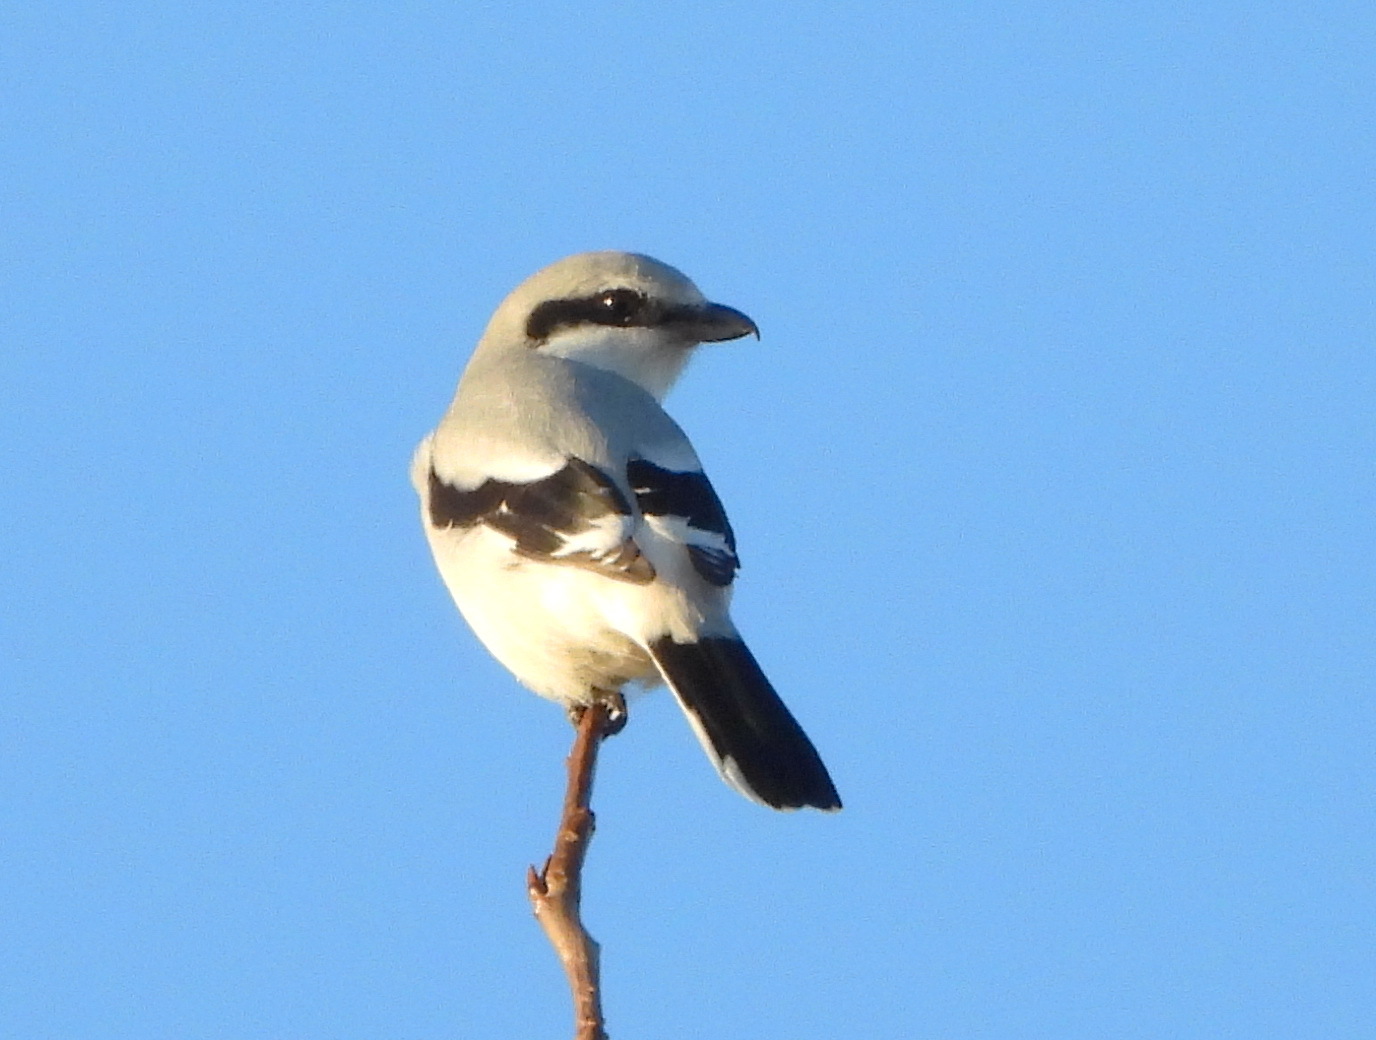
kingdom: Animalia
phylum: Chordata
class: Aves
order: Passeriformes
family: Laniidae
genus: Lanius
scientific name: Lanius excubitor
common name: Great grey shrike
